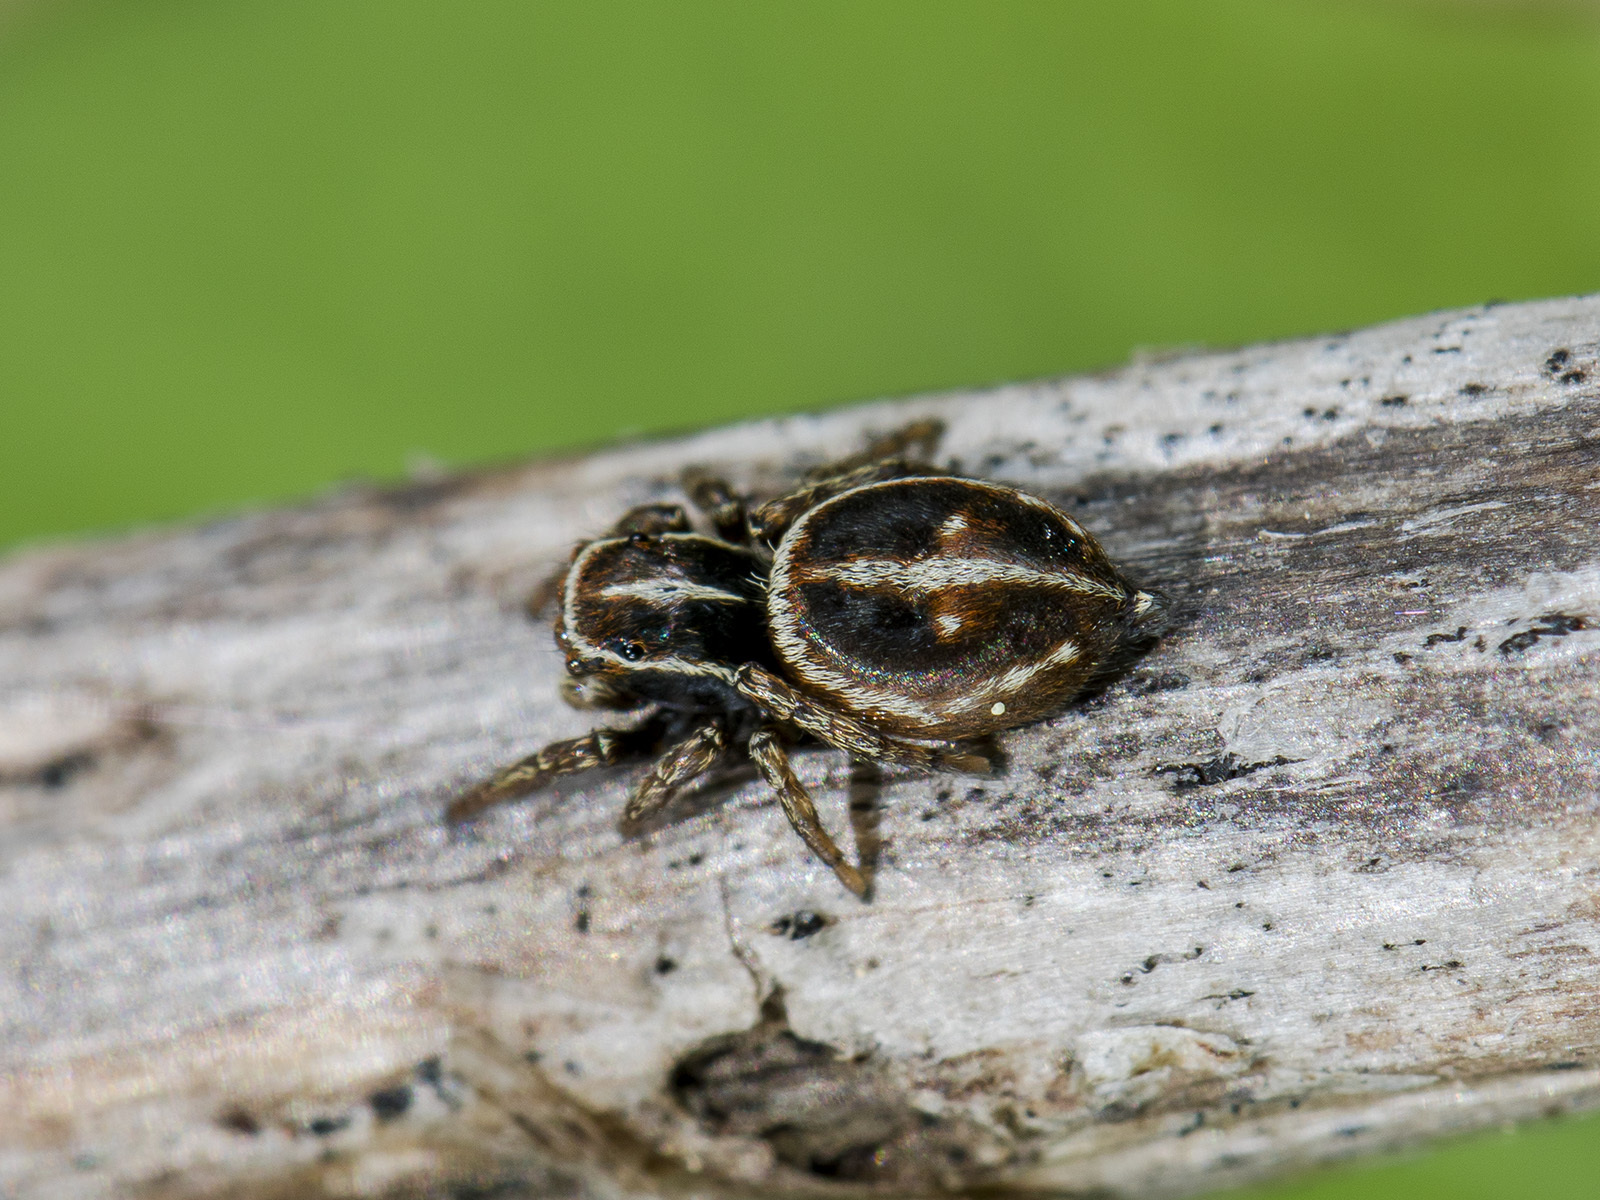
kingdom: Animalia
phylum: Arthropoda
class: Arachnida
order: Araneae
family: Salticidae
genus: Attulus
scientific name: Attulus monstrabilis
